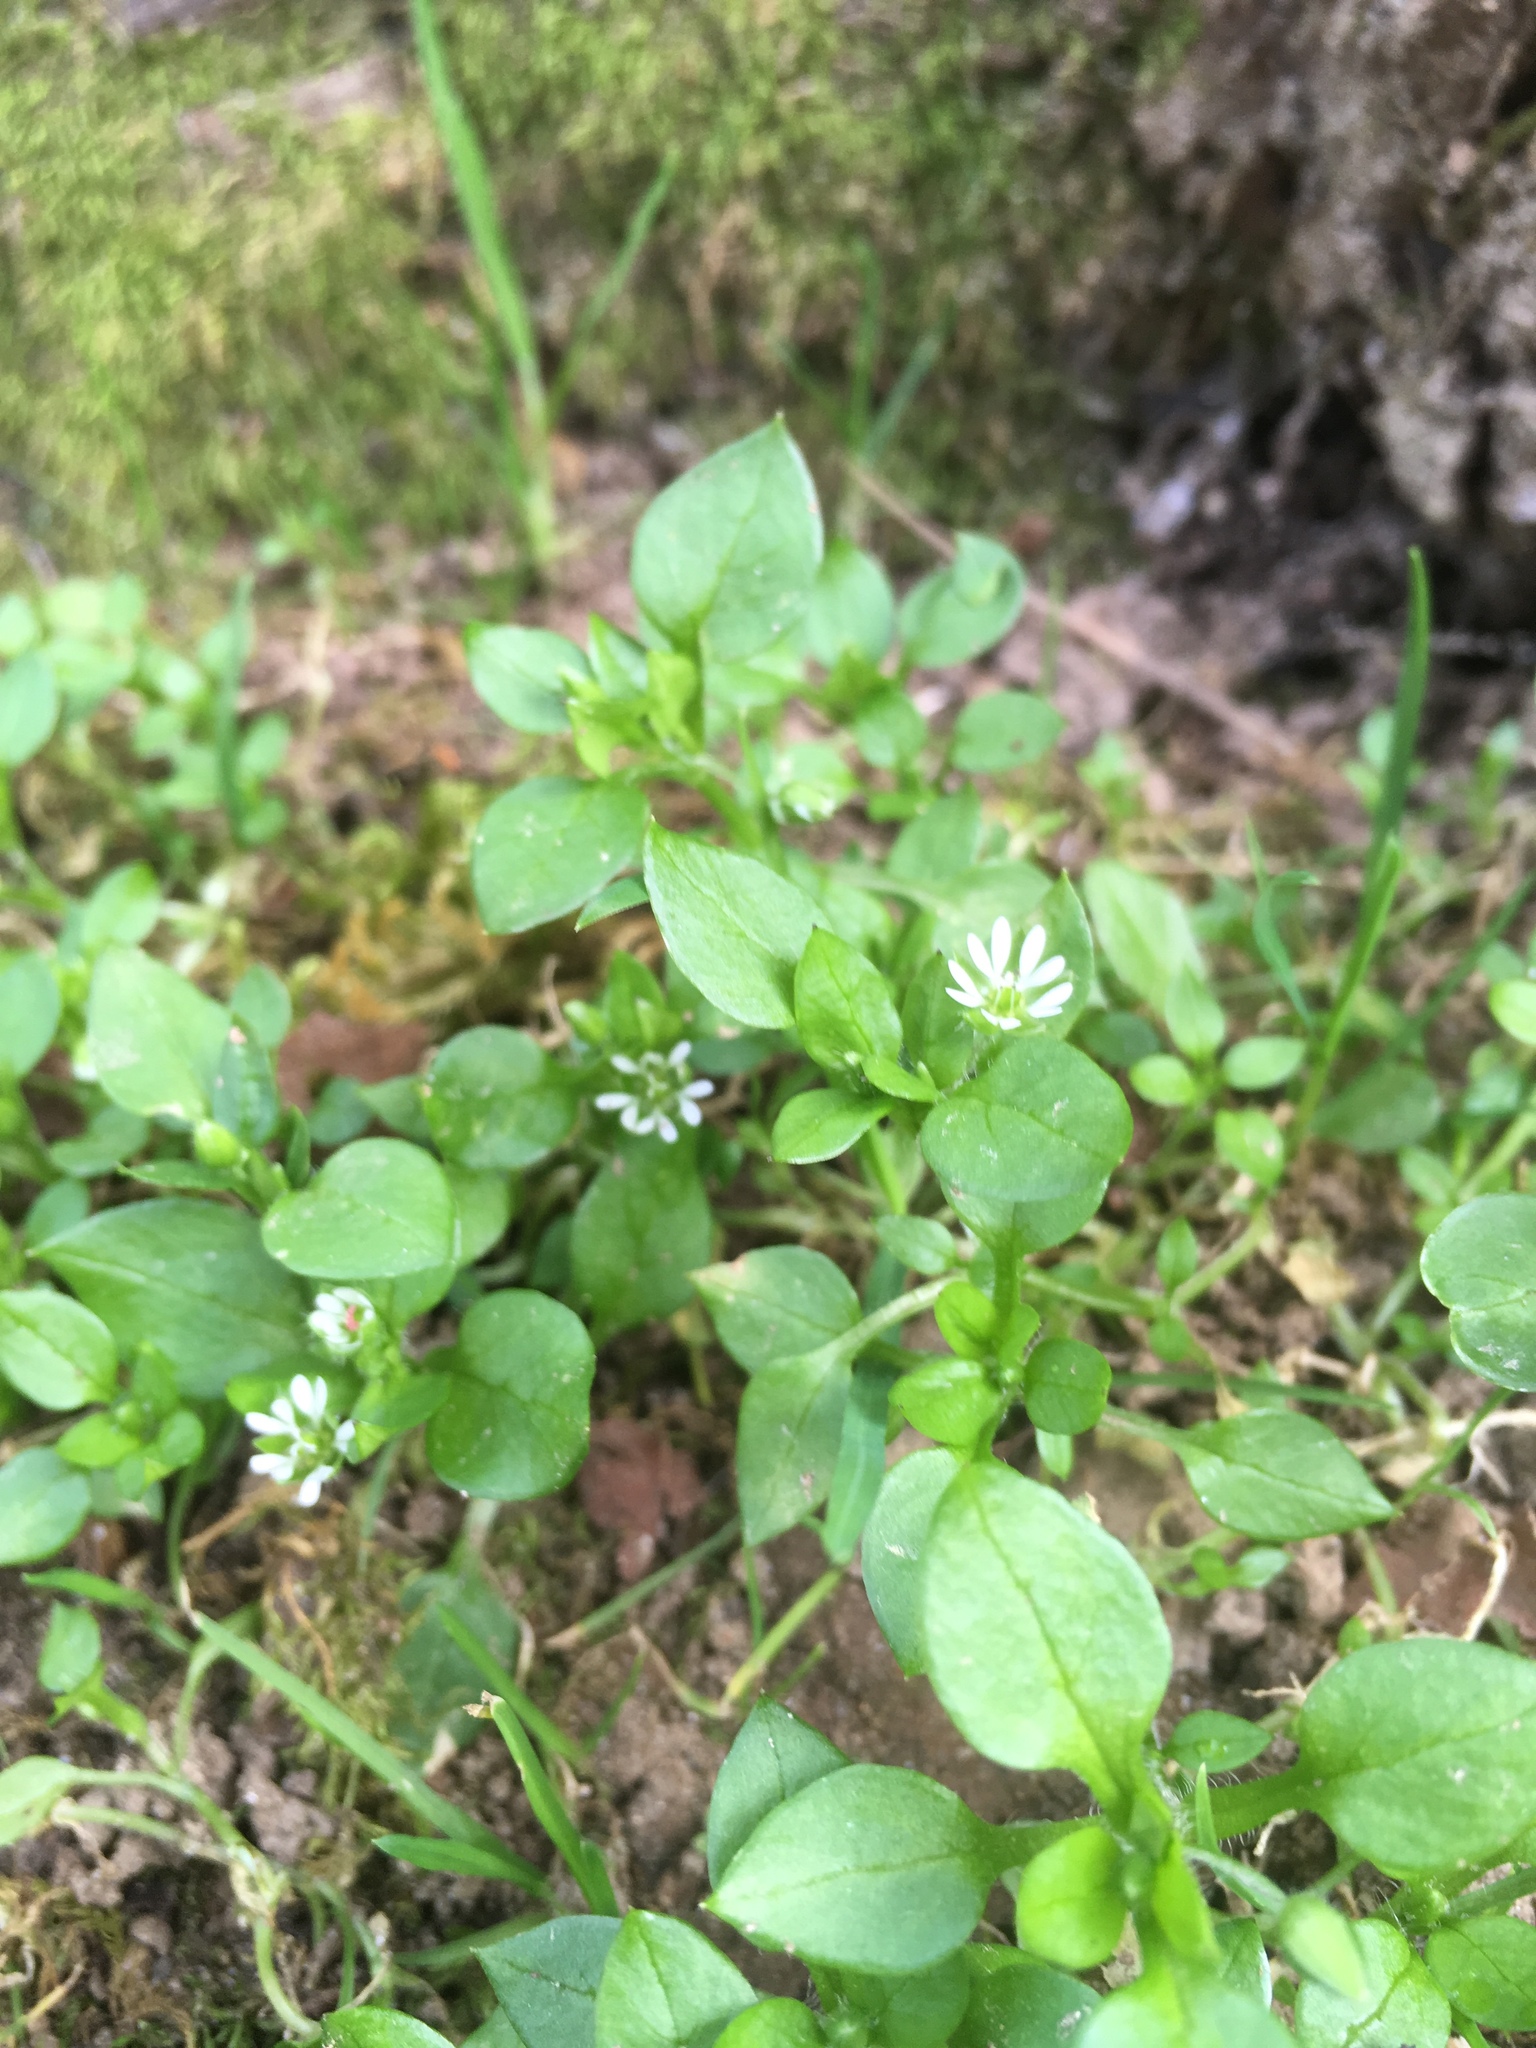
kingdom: Plantae
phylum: Tracheophyta
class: Magnoliopsida
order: Caryophyllales
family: Caryophyllaceae
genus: Stellaria
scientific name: Stellaria media
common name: Common chickweed
